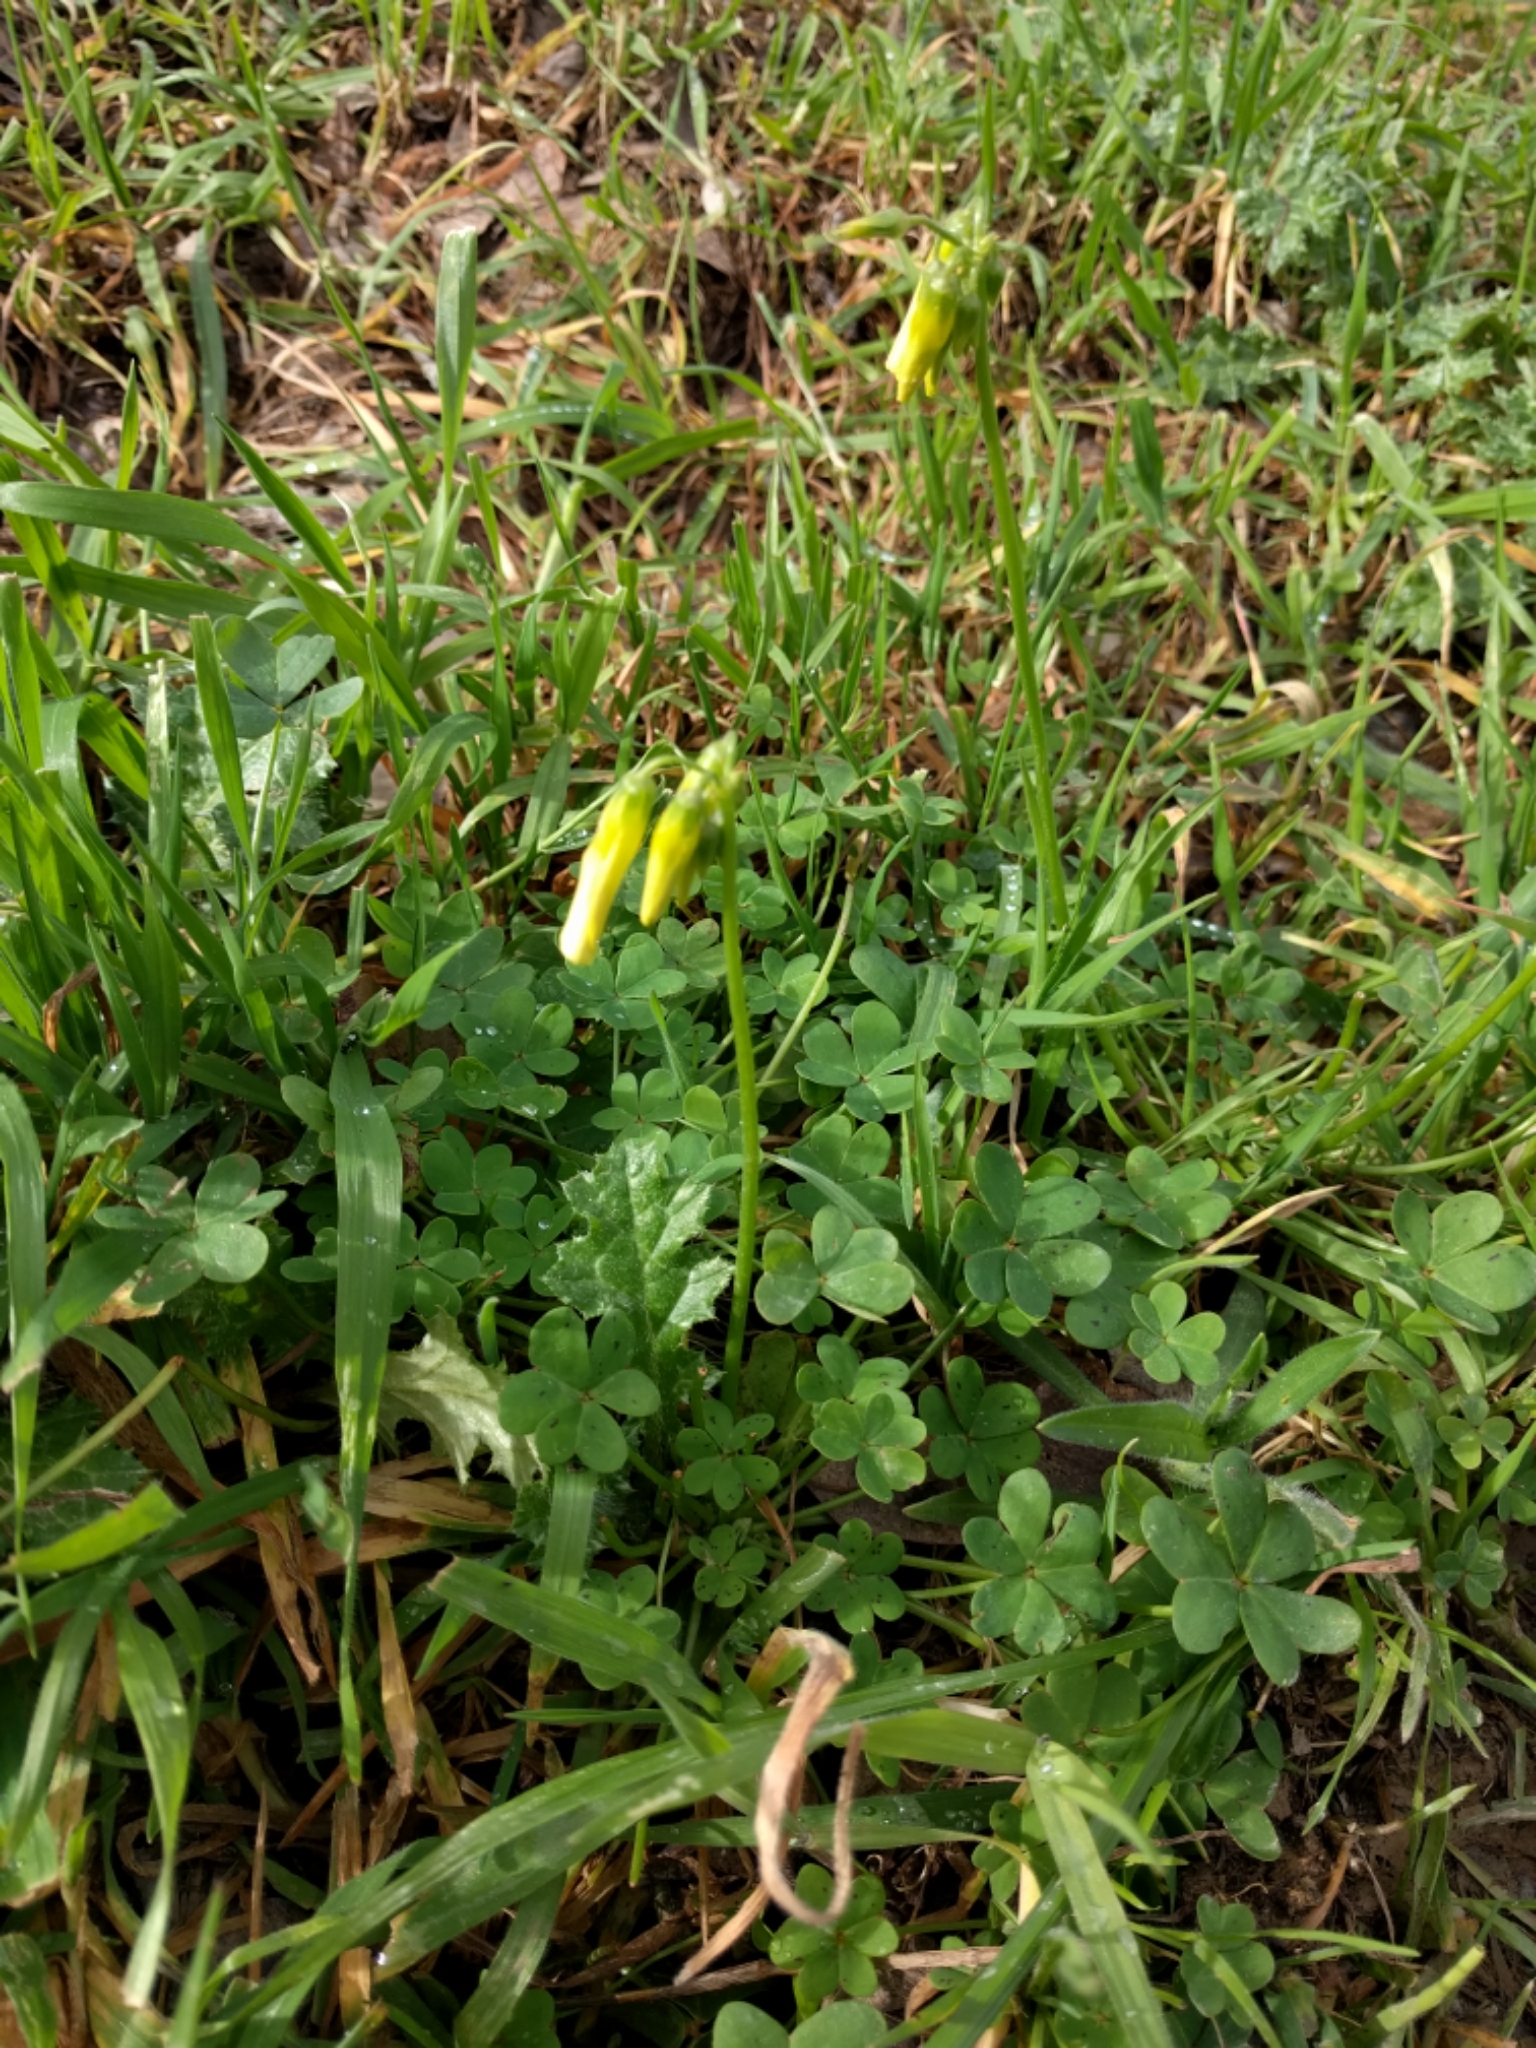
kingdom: Plantae
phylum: Tracheophyta
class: Magnoliopsida
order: Oxalidales
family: Oxalidaceae
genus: Oxalis
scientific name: Oxalis pes-caprae
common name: Bermuda-buttercup
